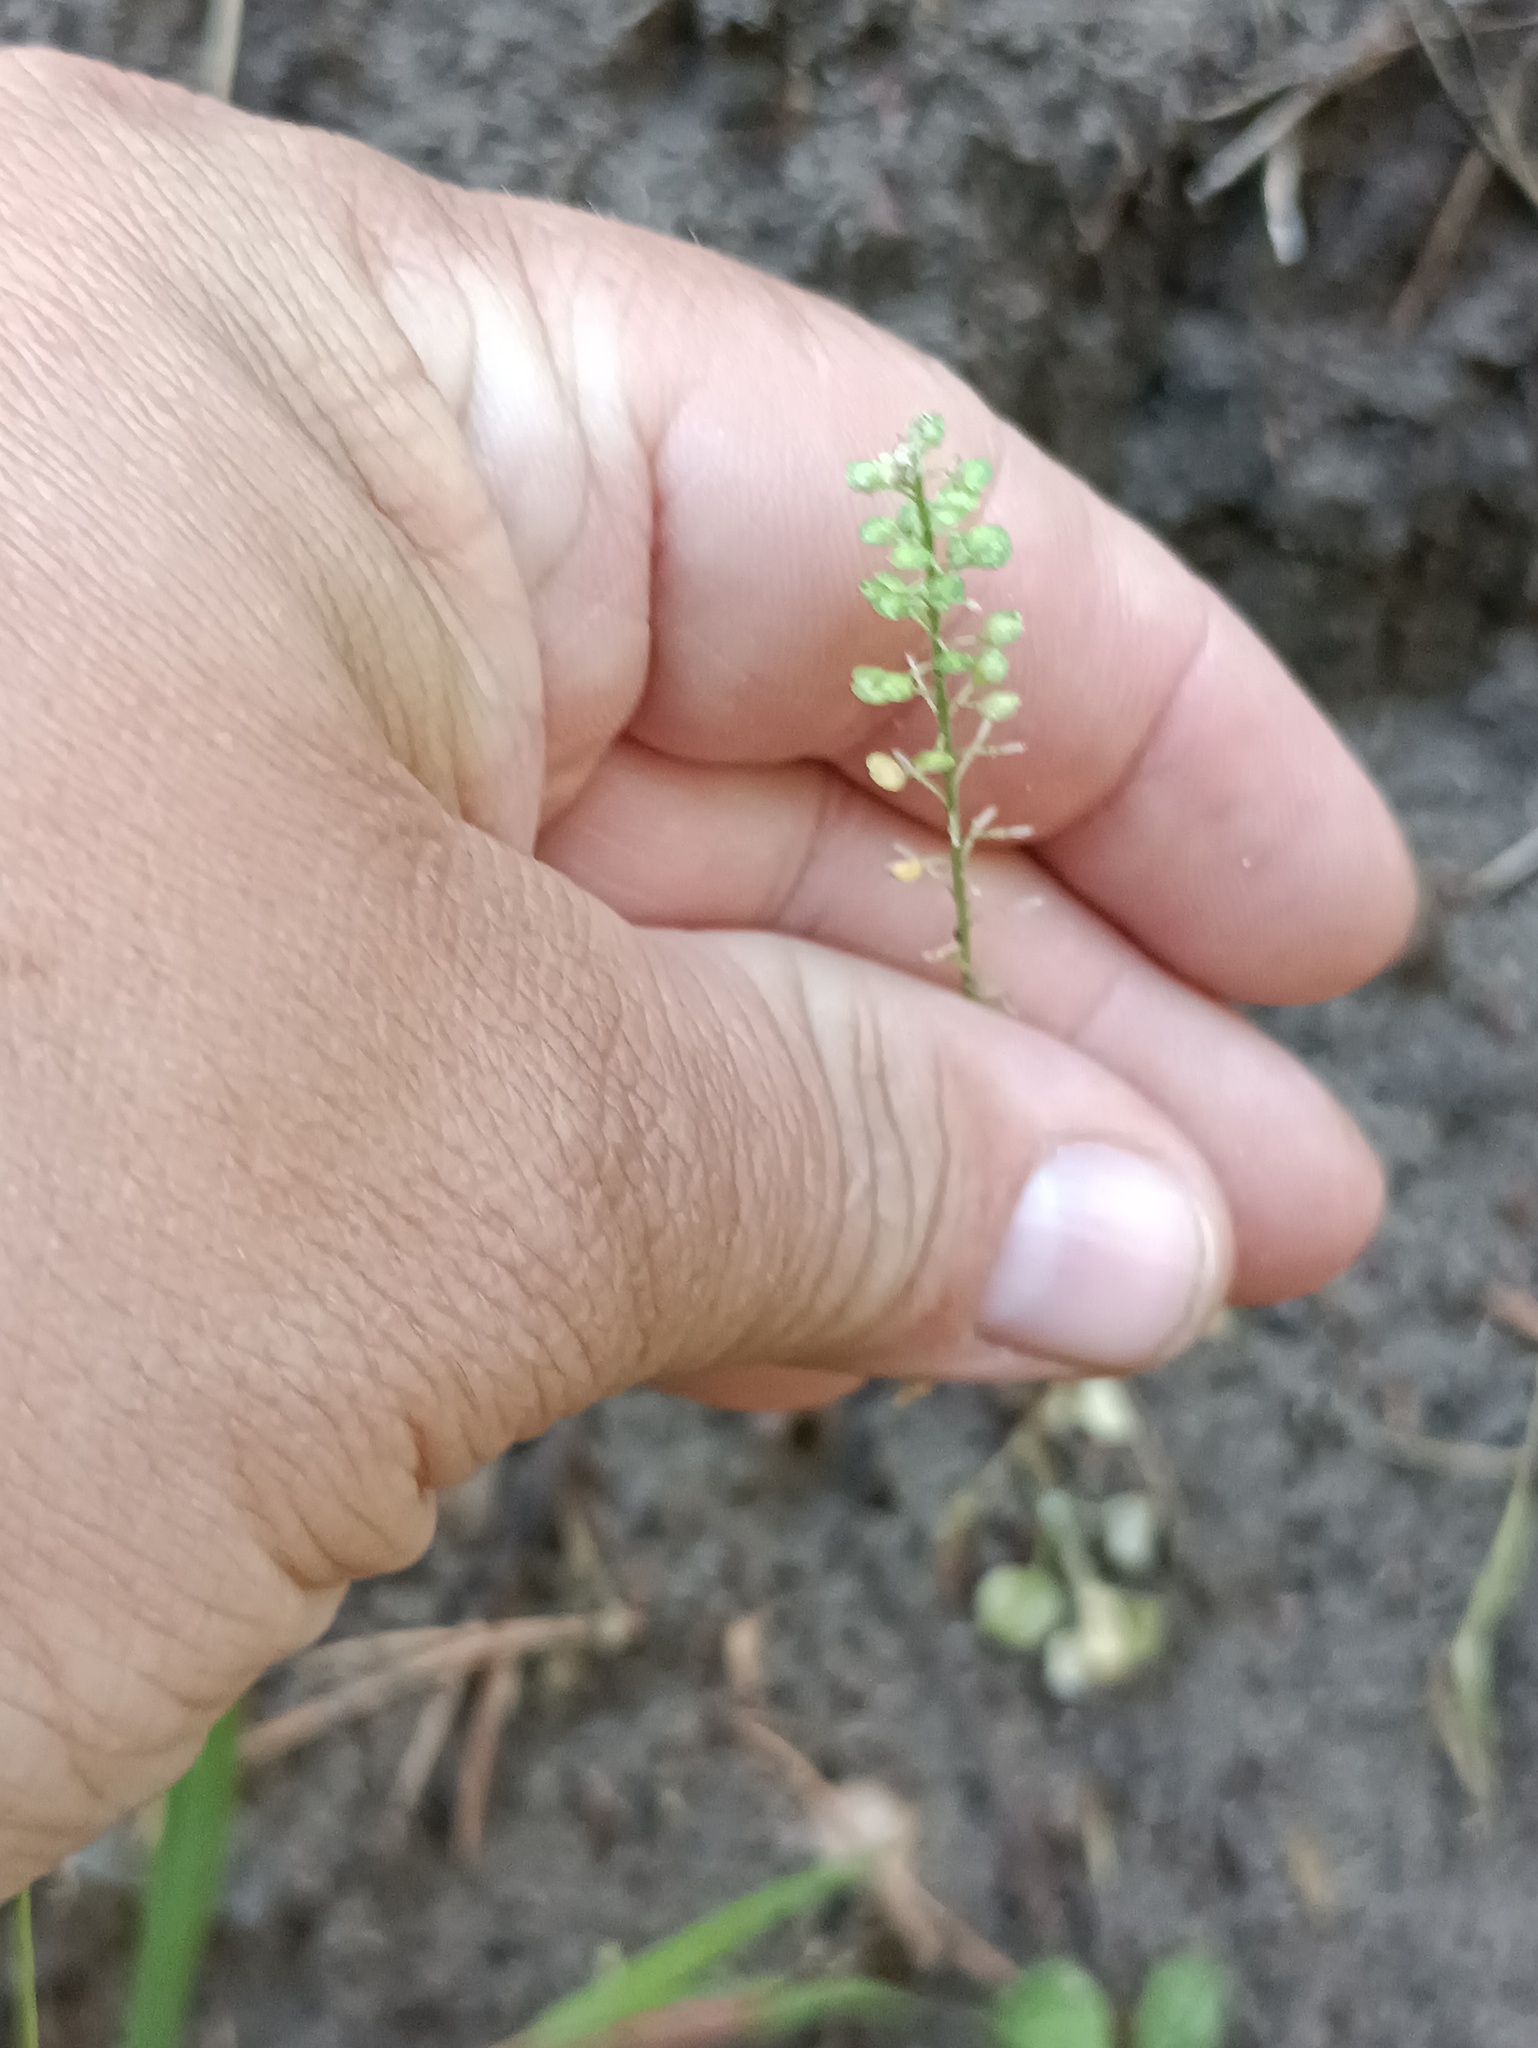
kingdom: Plantae
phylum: Tracheophyta
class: Magnoliopsida
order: Brassicales
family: Brassicaceae
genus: Lepidium
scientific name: Lepidium densiflorum
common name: Miner's pepperwort
